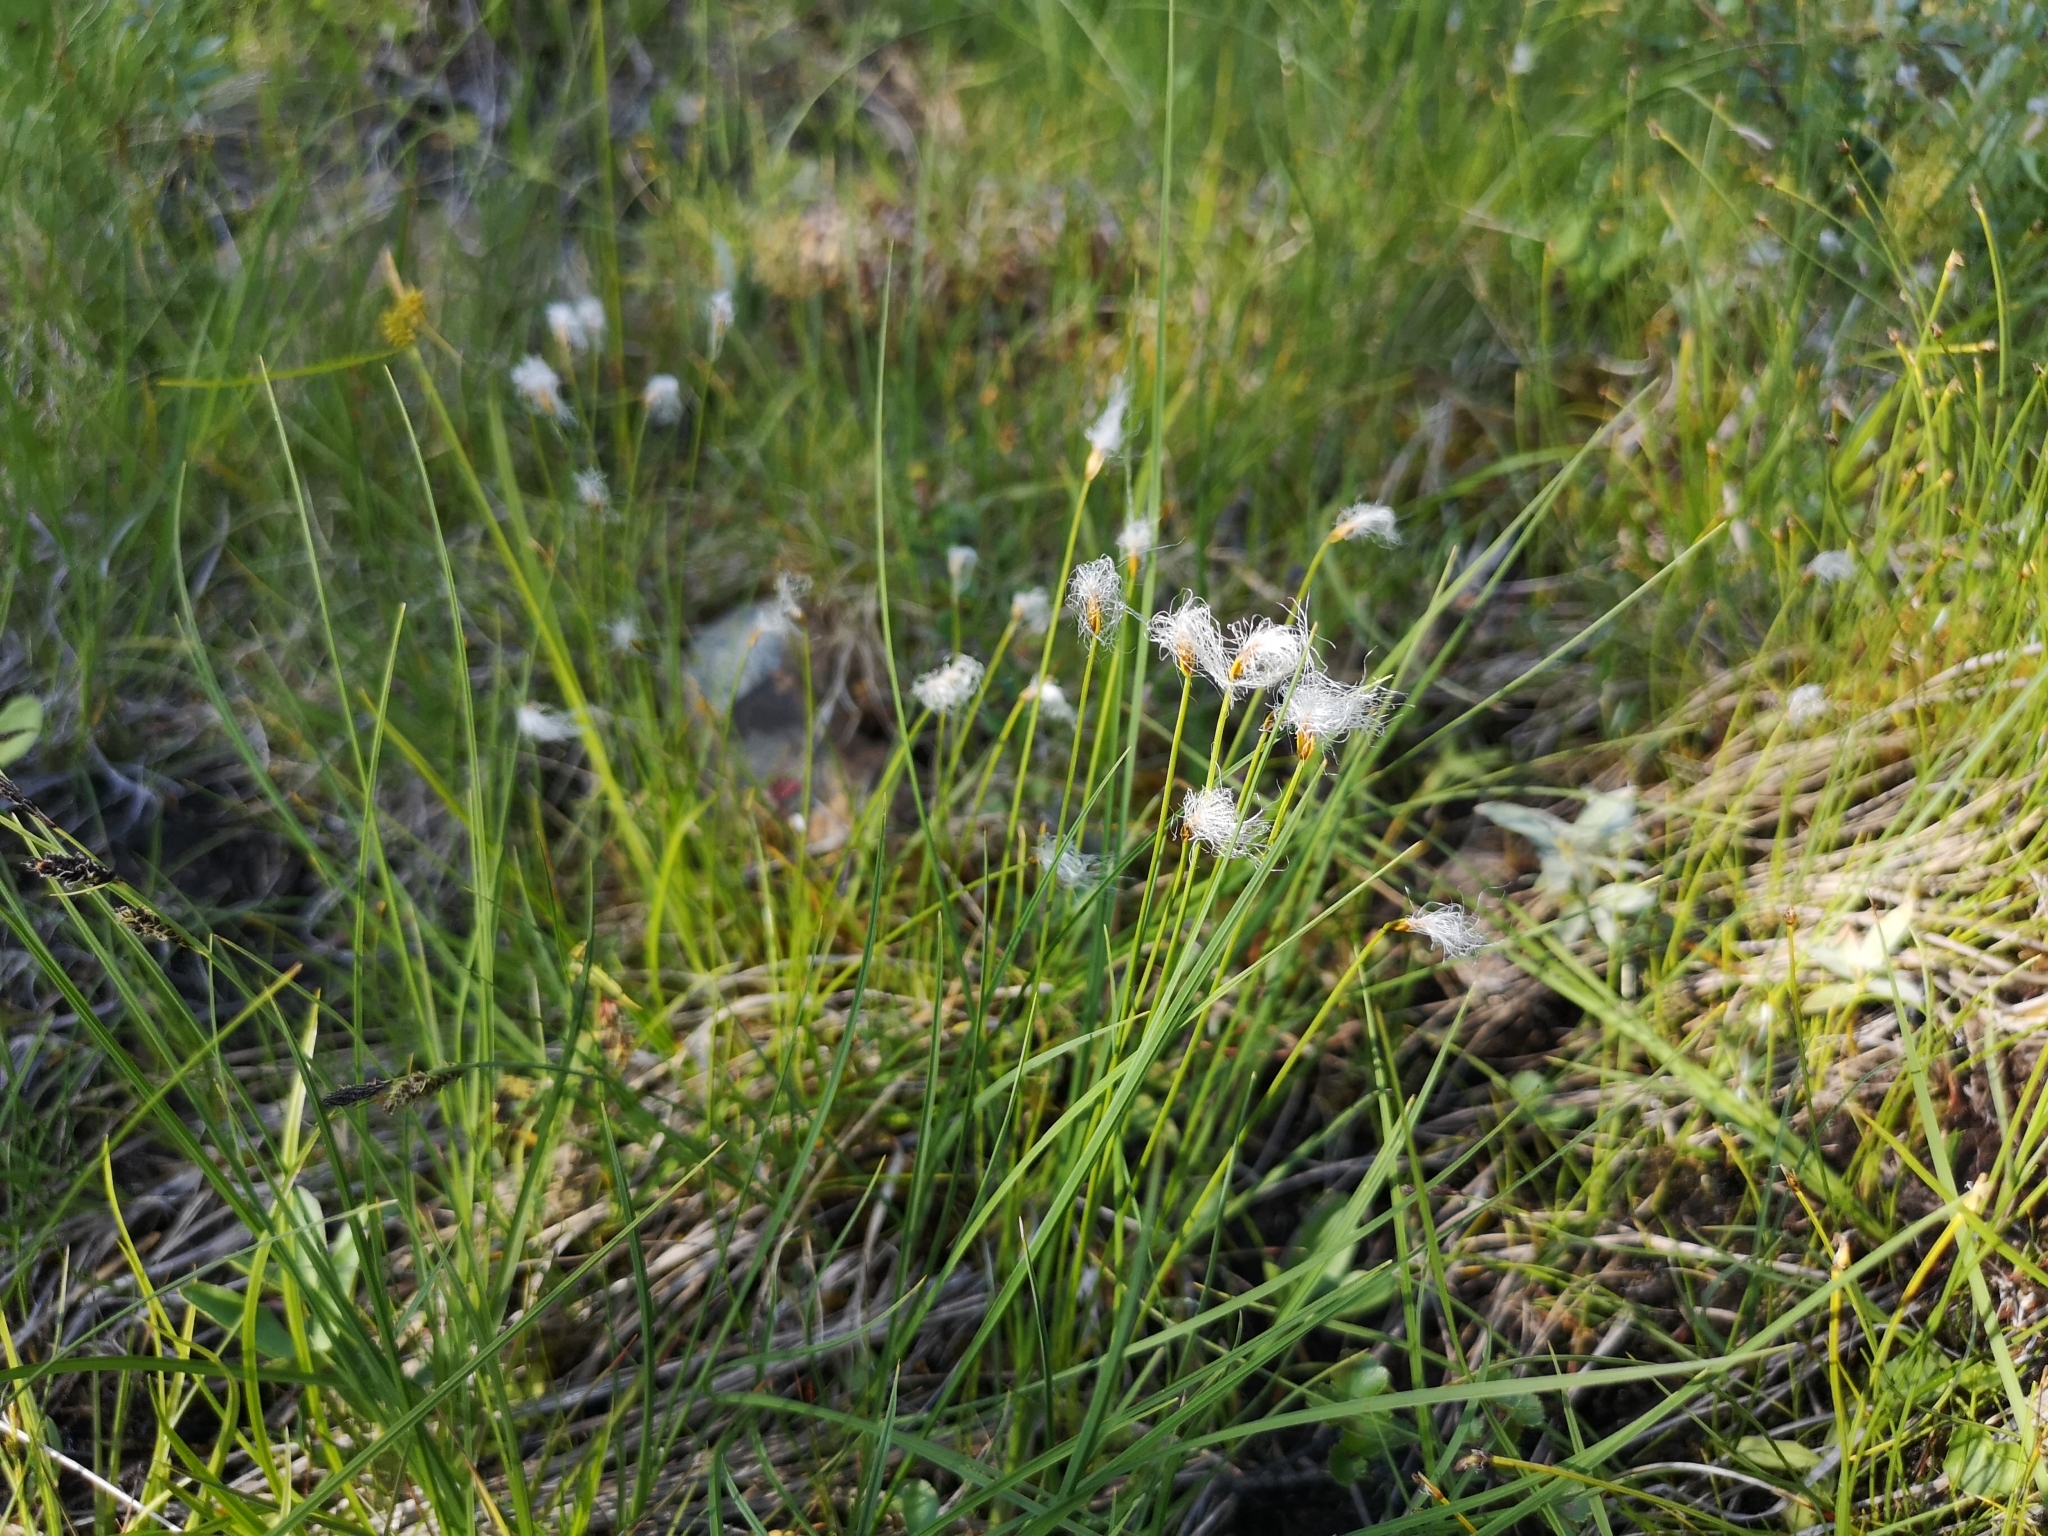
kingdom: Plantae
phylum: Tracheophyta
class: Liliopsida
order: Poales
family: Cyperaceae
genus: Trichophorum
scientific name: Trichophorum alpinum
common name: Alpine bulrush
